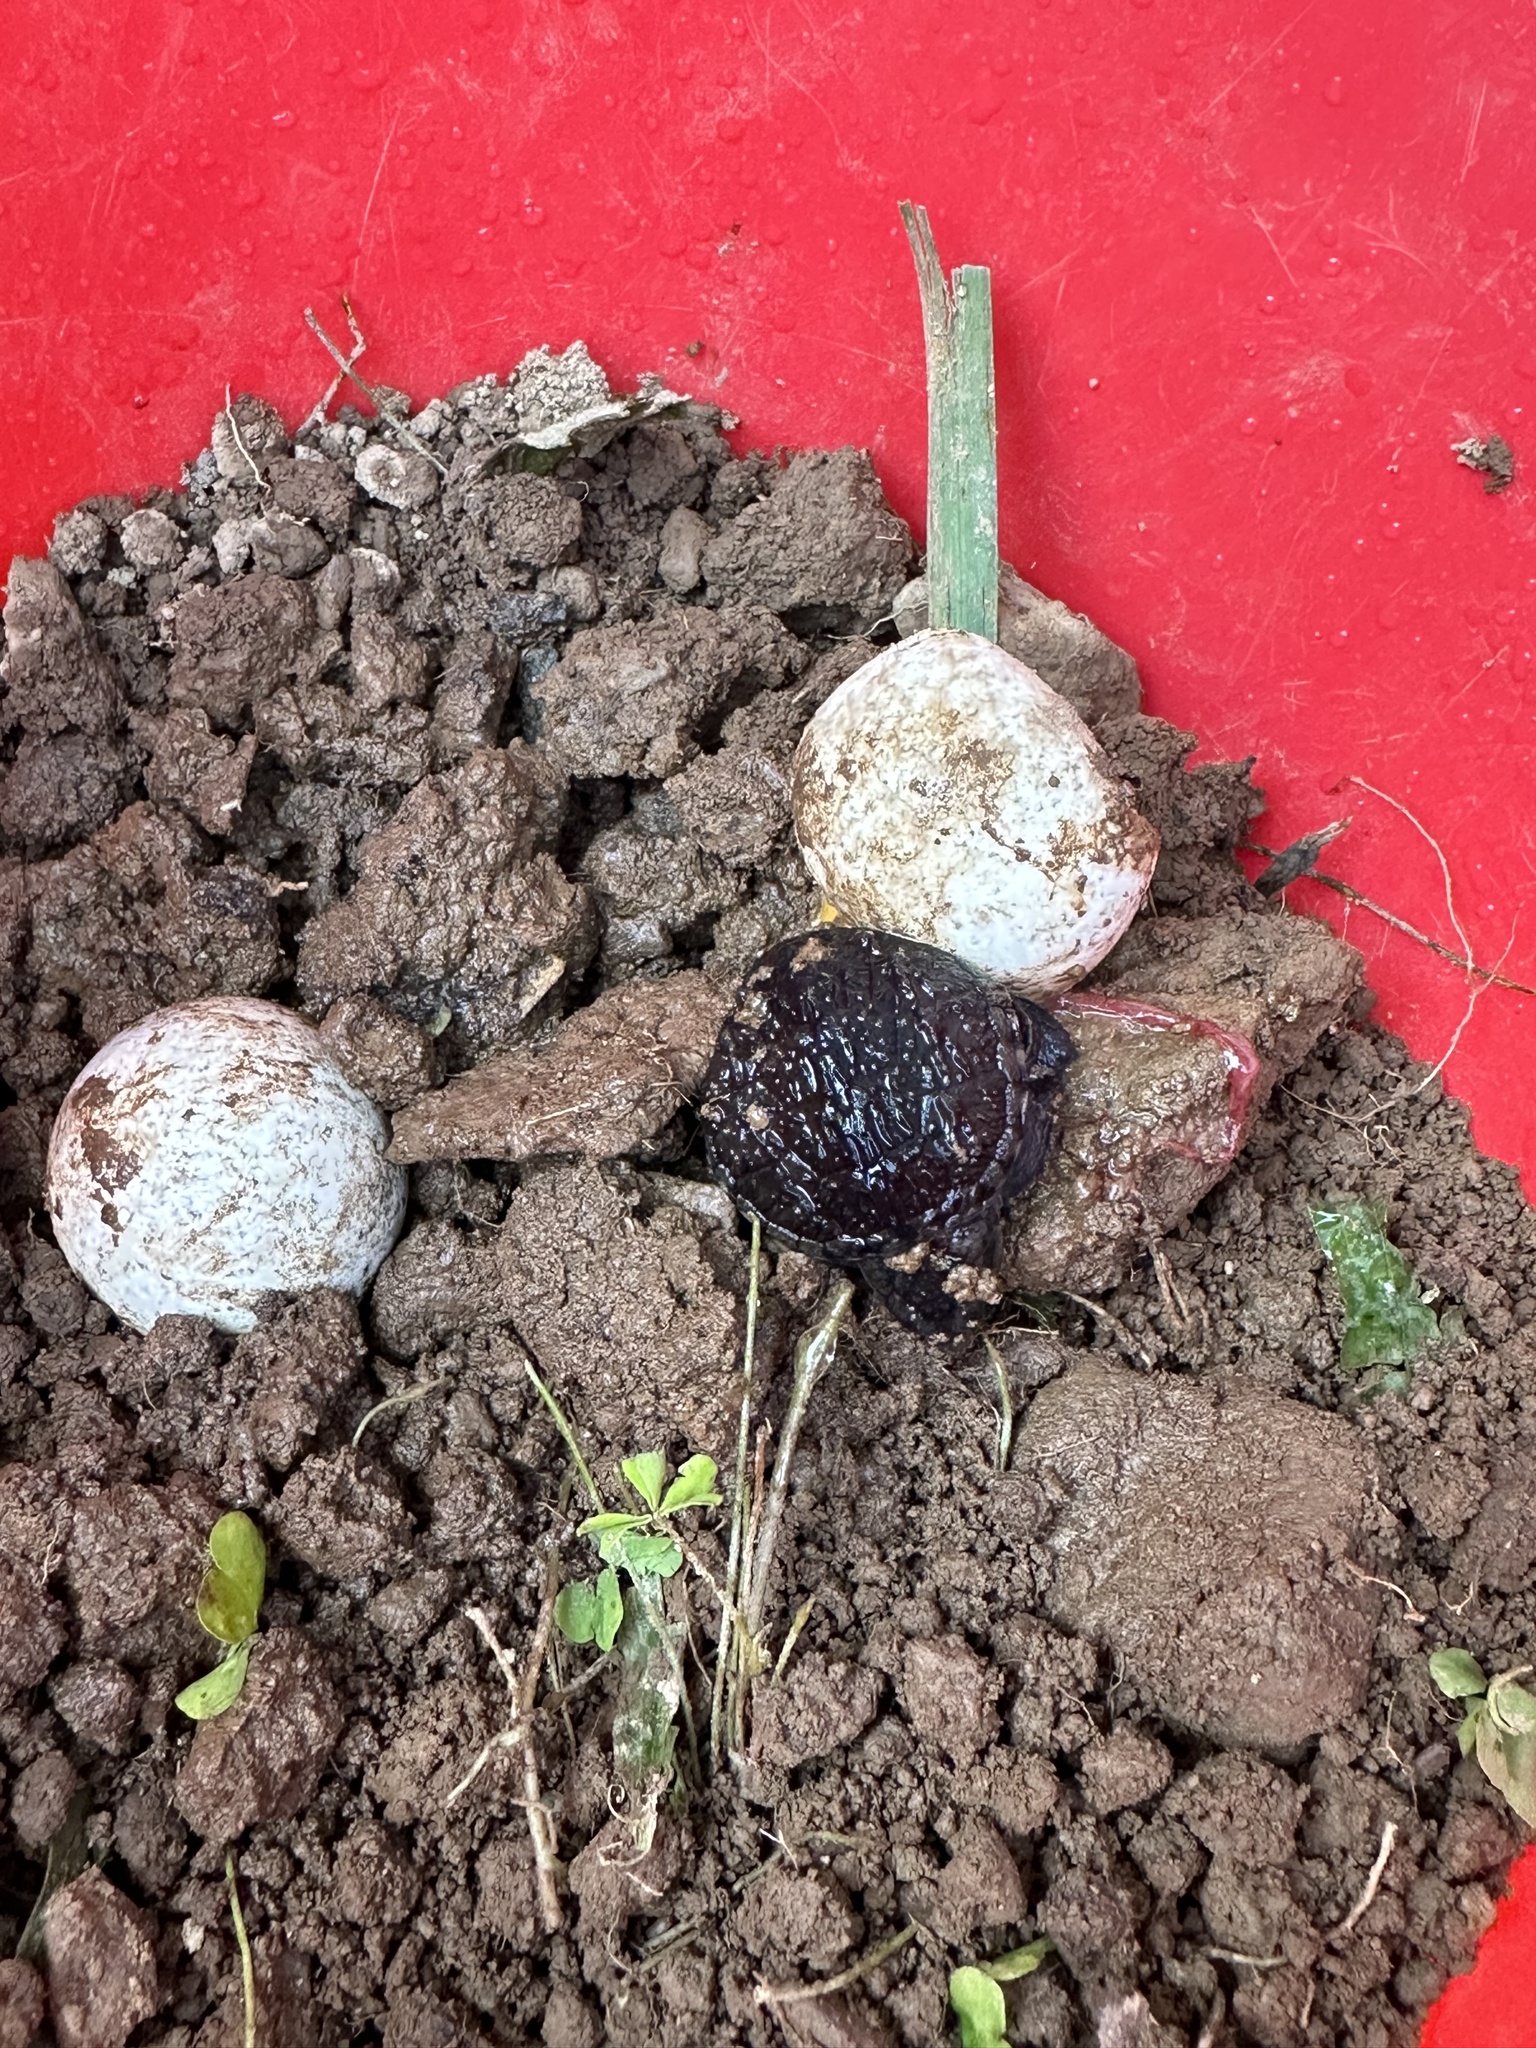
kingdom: Animalia
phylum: Chordata
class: Testudines
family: Chelydridae
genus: Chelydra
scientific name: Chelydra serpentina
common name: Common snapping turtle
